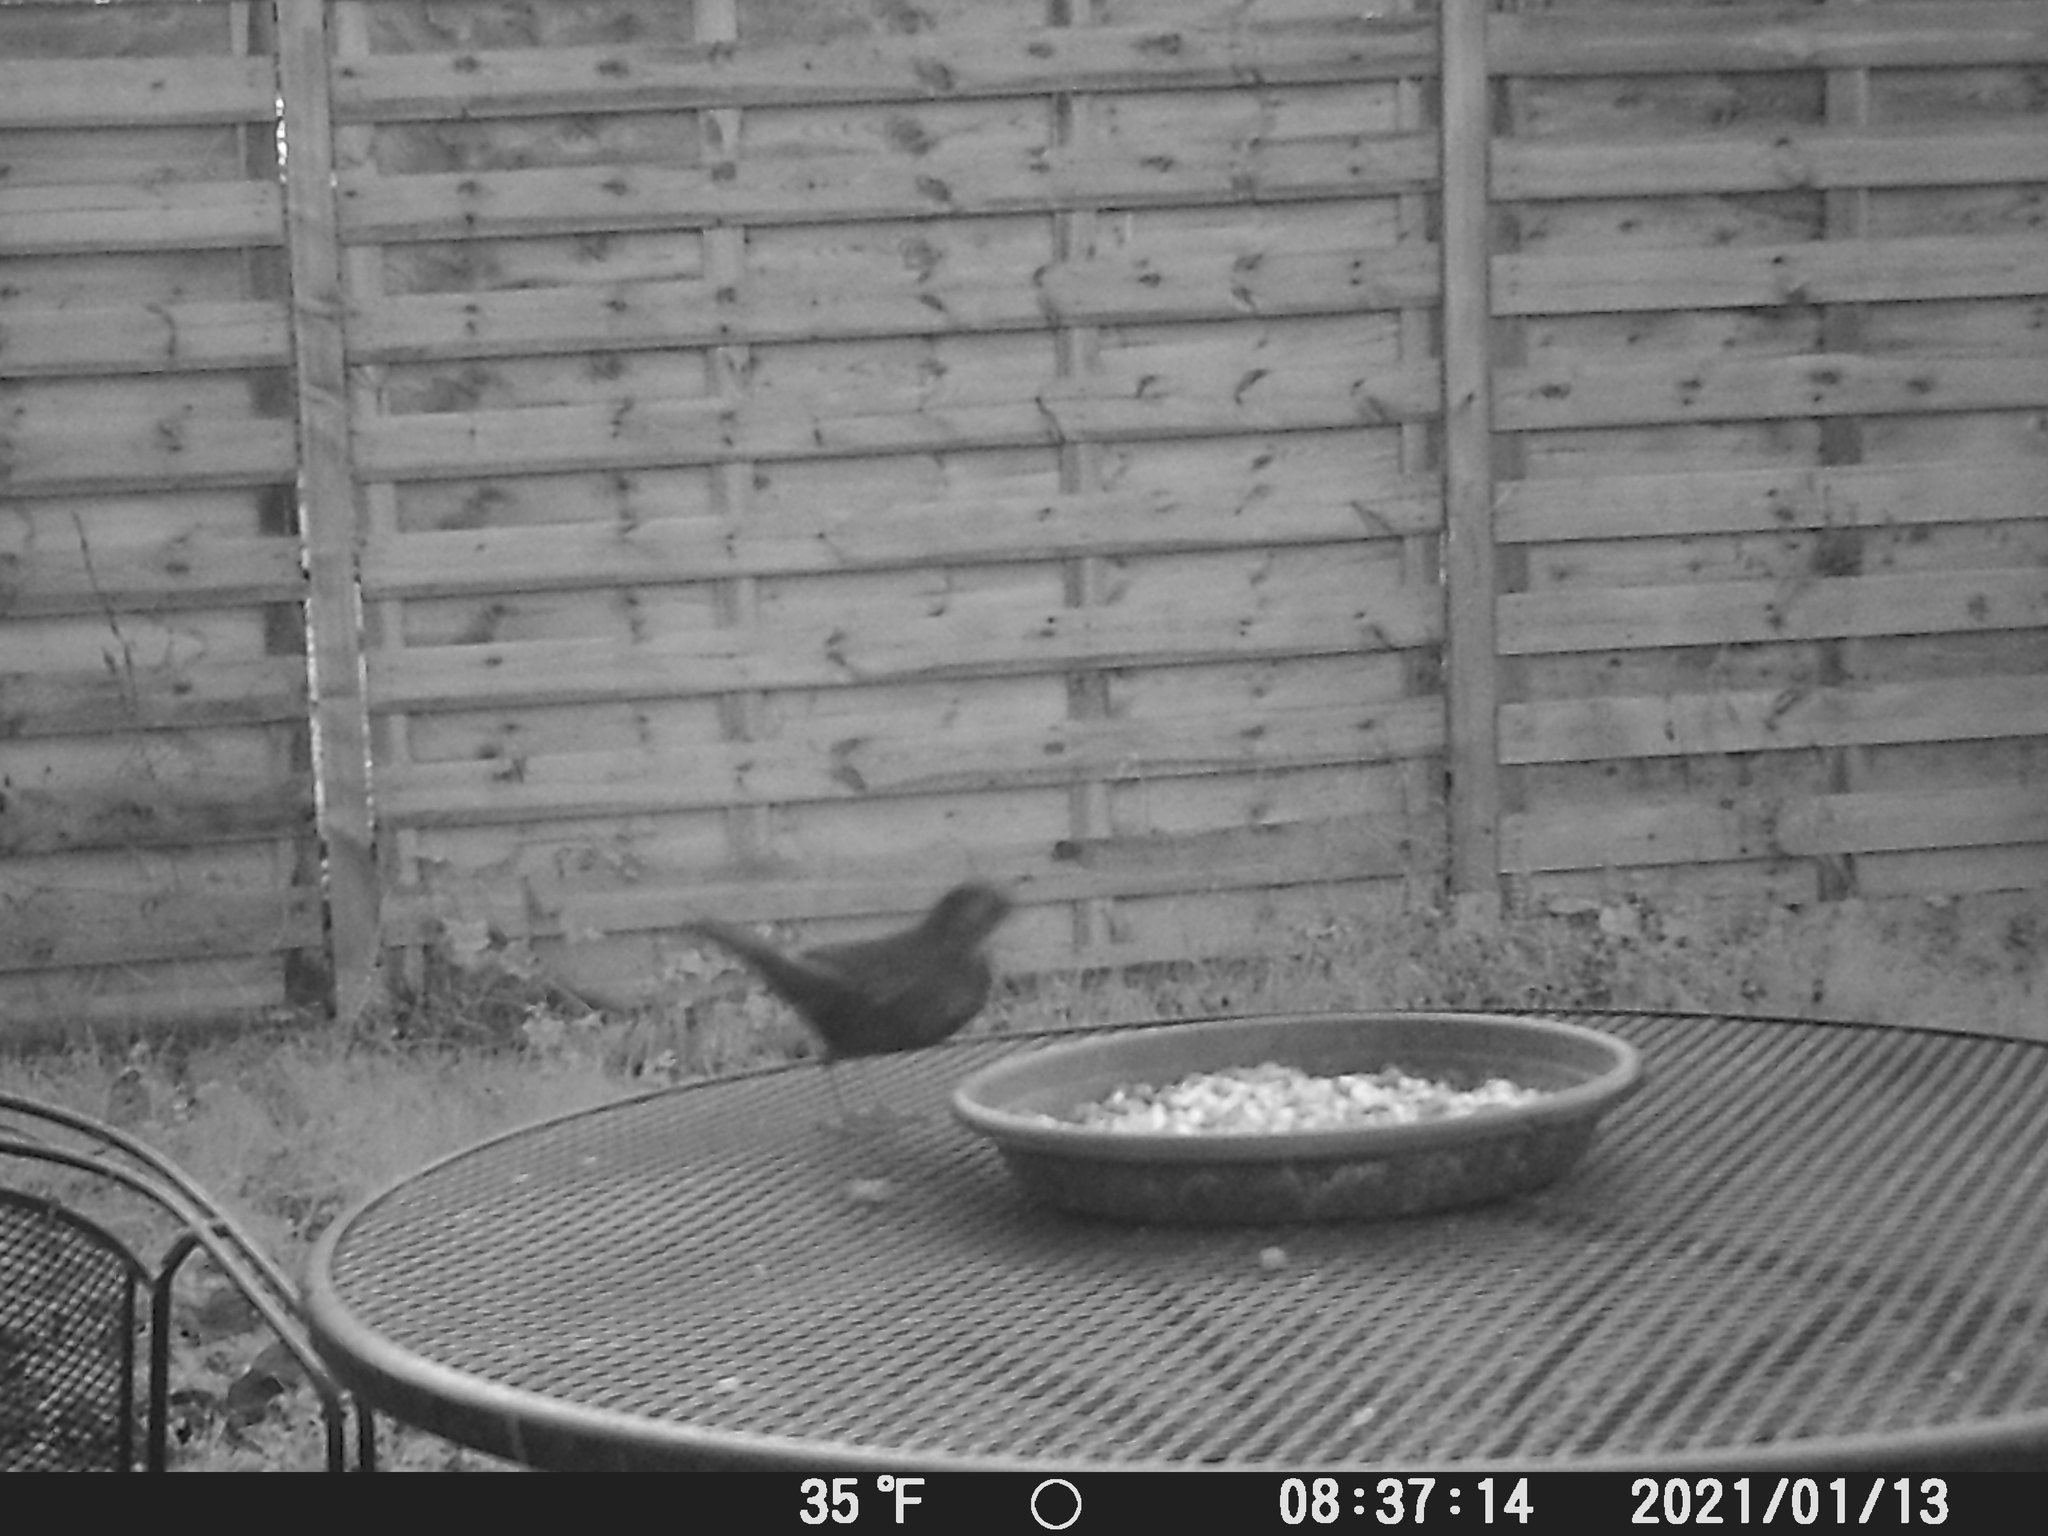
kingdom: Animalia
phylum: Chordata
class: Aves
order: Passeriformes
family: Turdidae
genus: Turdus
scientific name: Turdus merula
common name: Common blackbird
